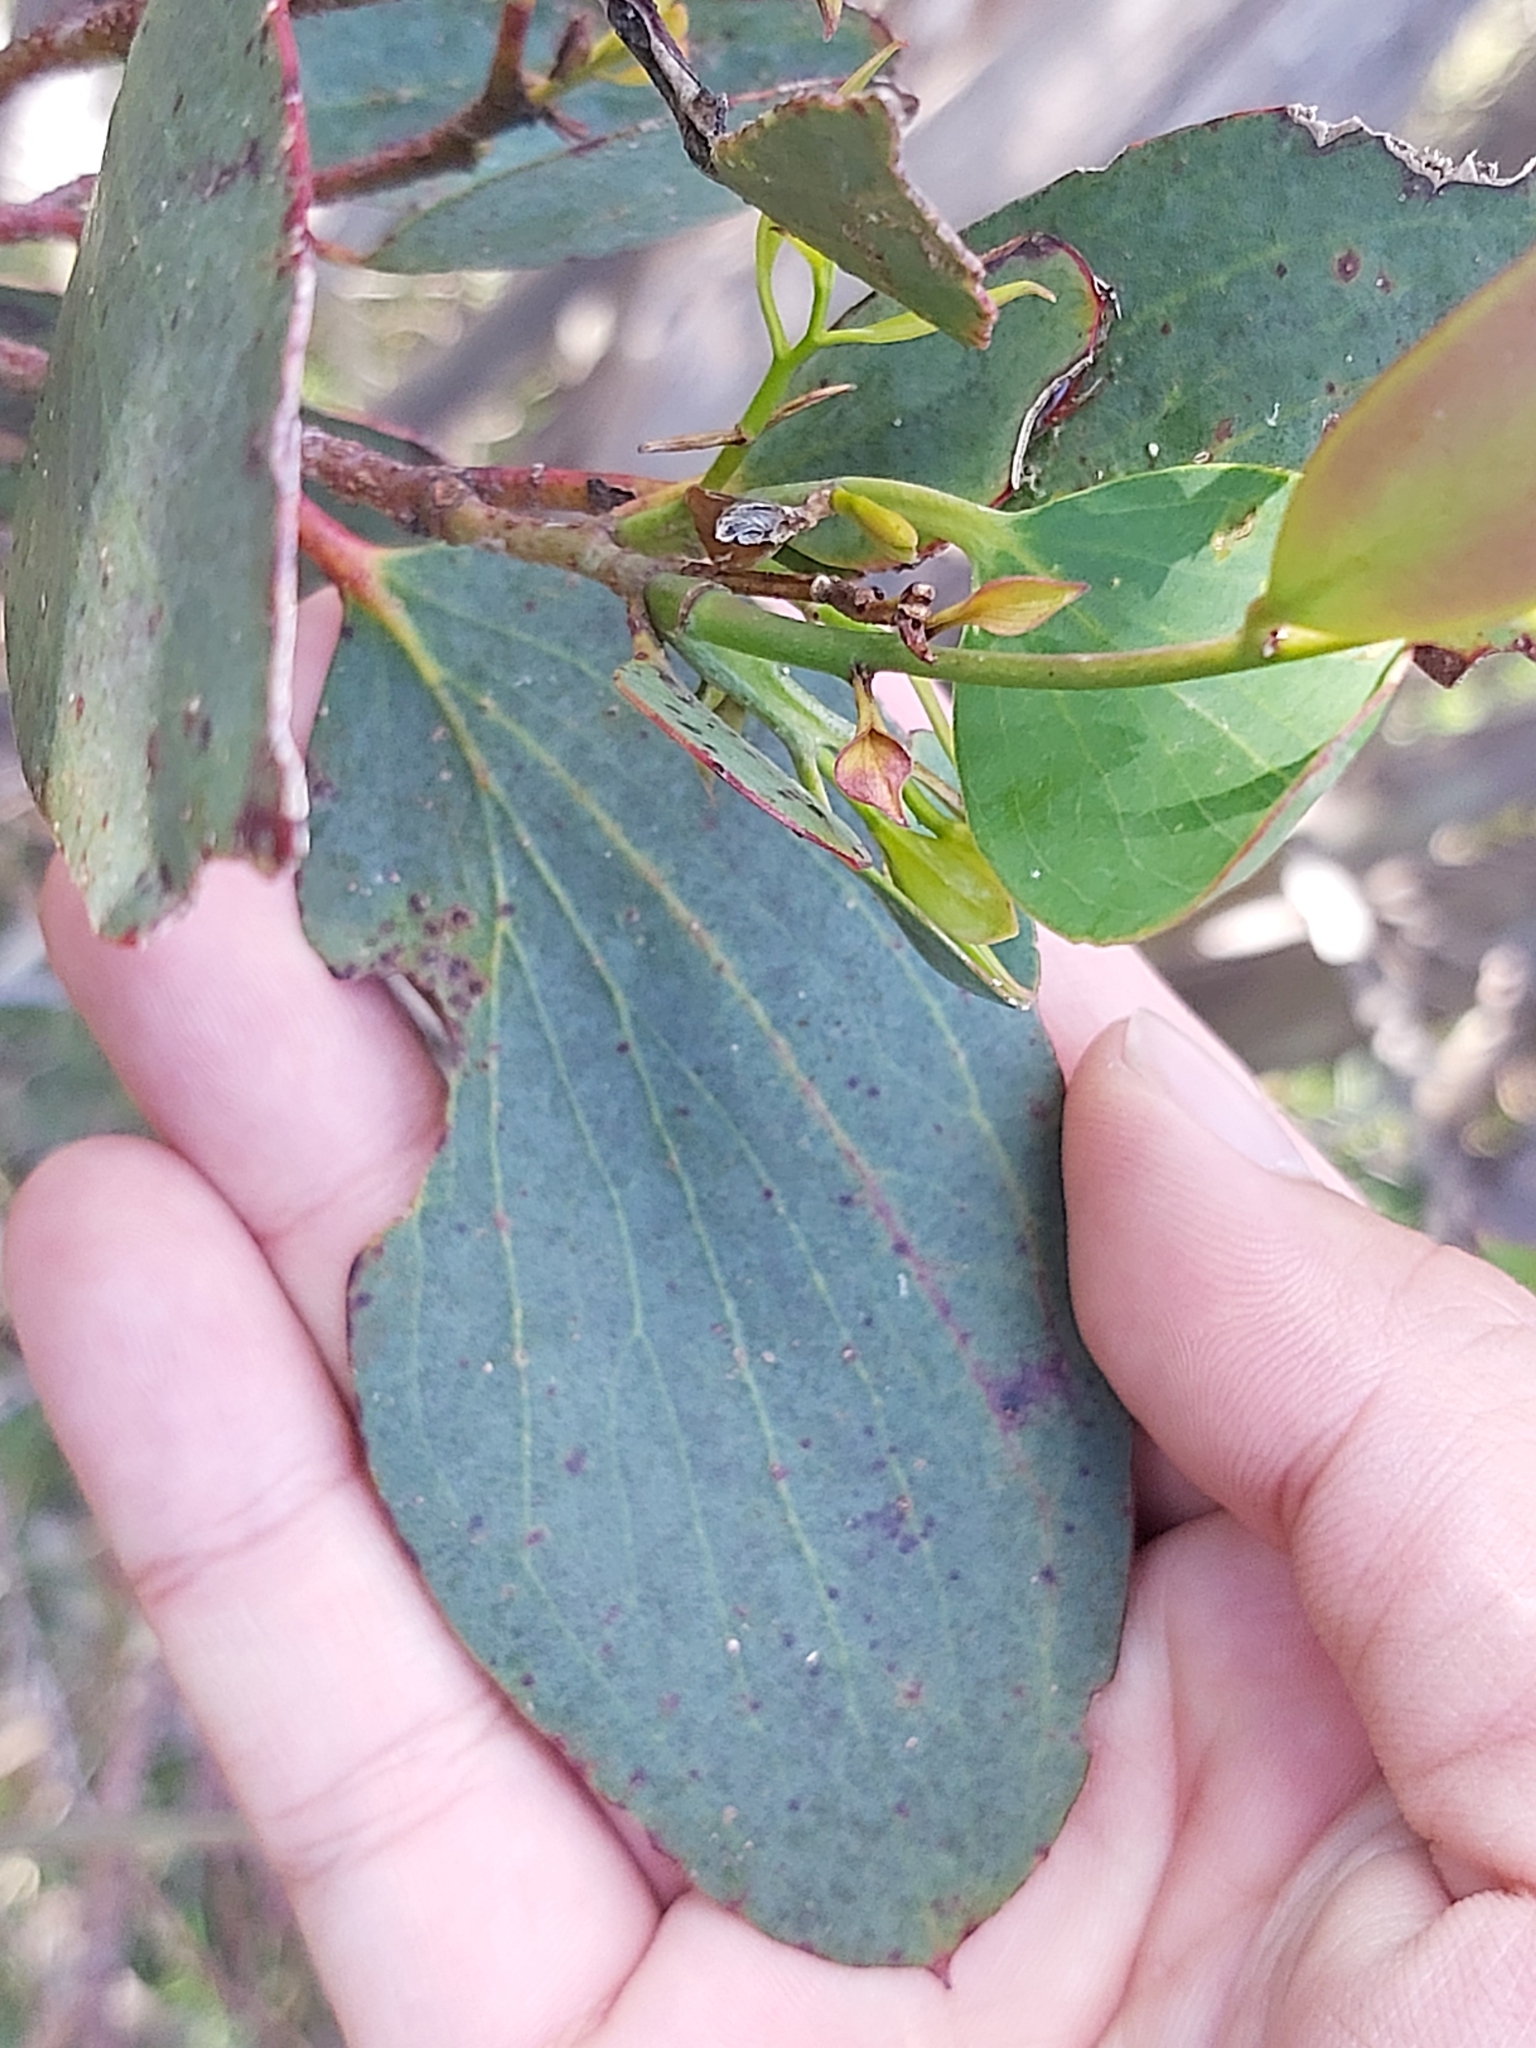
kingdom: Plantae
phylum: Tracheophyta
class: Magnoliopsida
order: Myrtales
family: Myrtaceae
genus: Eucalyptus
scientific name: Eucalyptus pauciflora
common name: Snow gum
